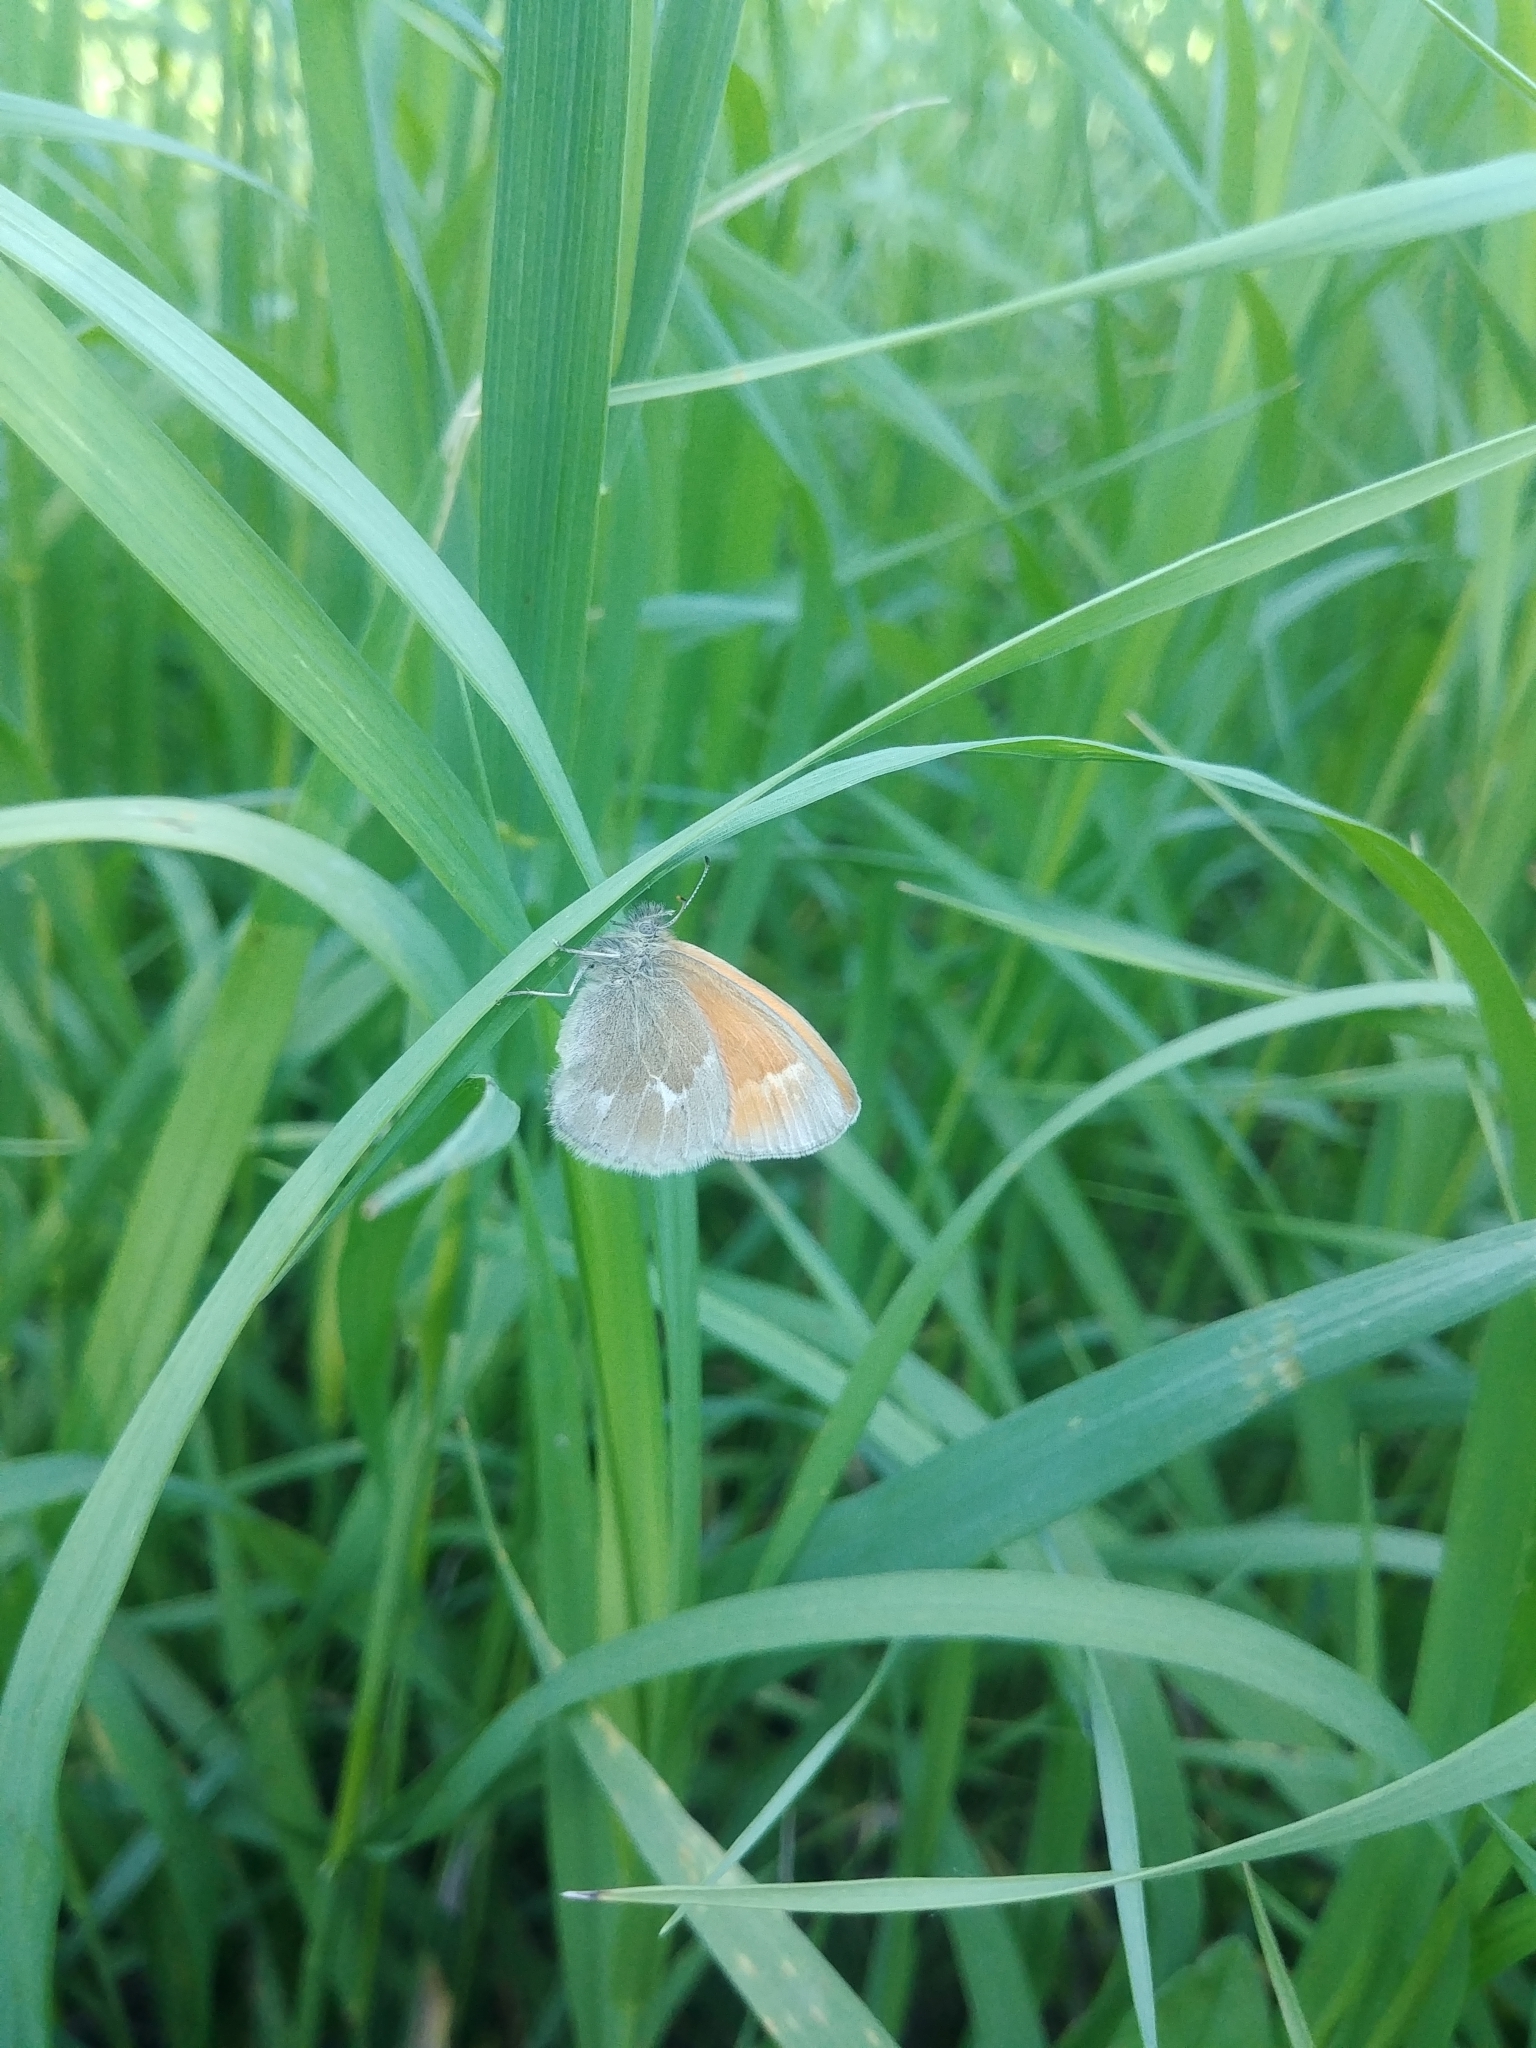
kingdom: Animalia
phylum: Arthropoda
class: Insecta
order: Lepidoptera
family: Nymphalidae
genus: Coenonympha
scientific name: Coenonympha california
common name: Common ringlet
